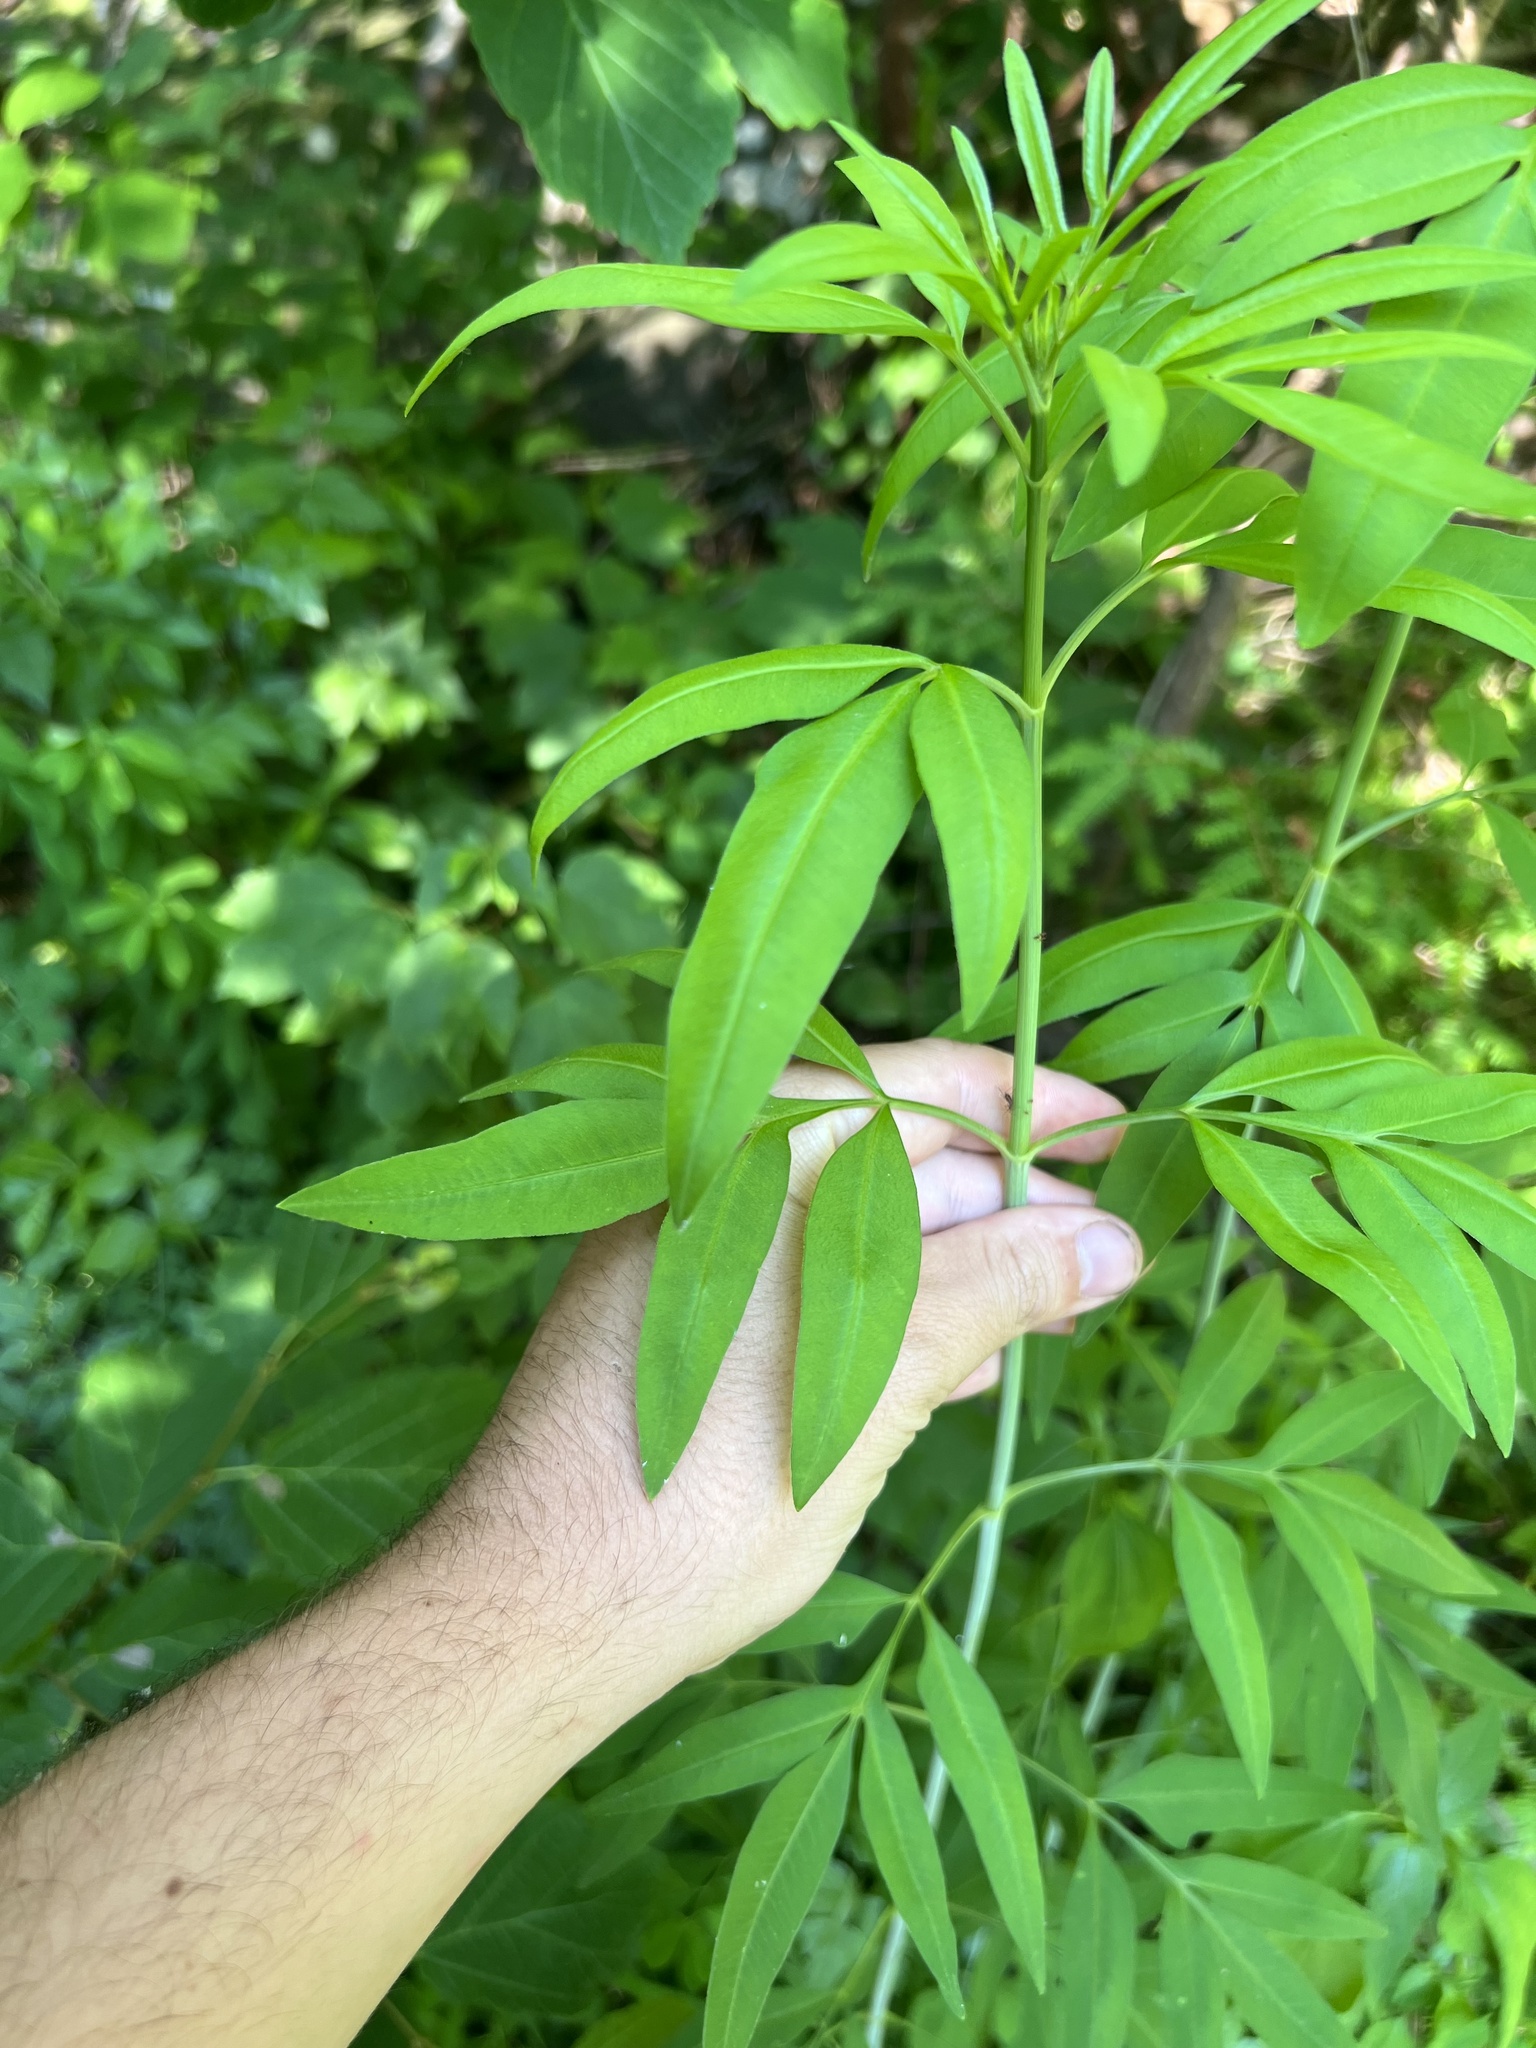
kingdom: Plantae
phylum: Tracheophyta
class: Magnoliopsida
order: Asterales
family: Asteraceae
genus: Coreopsis
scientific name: Coreopsis tripteris
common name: Tall coreopsis
